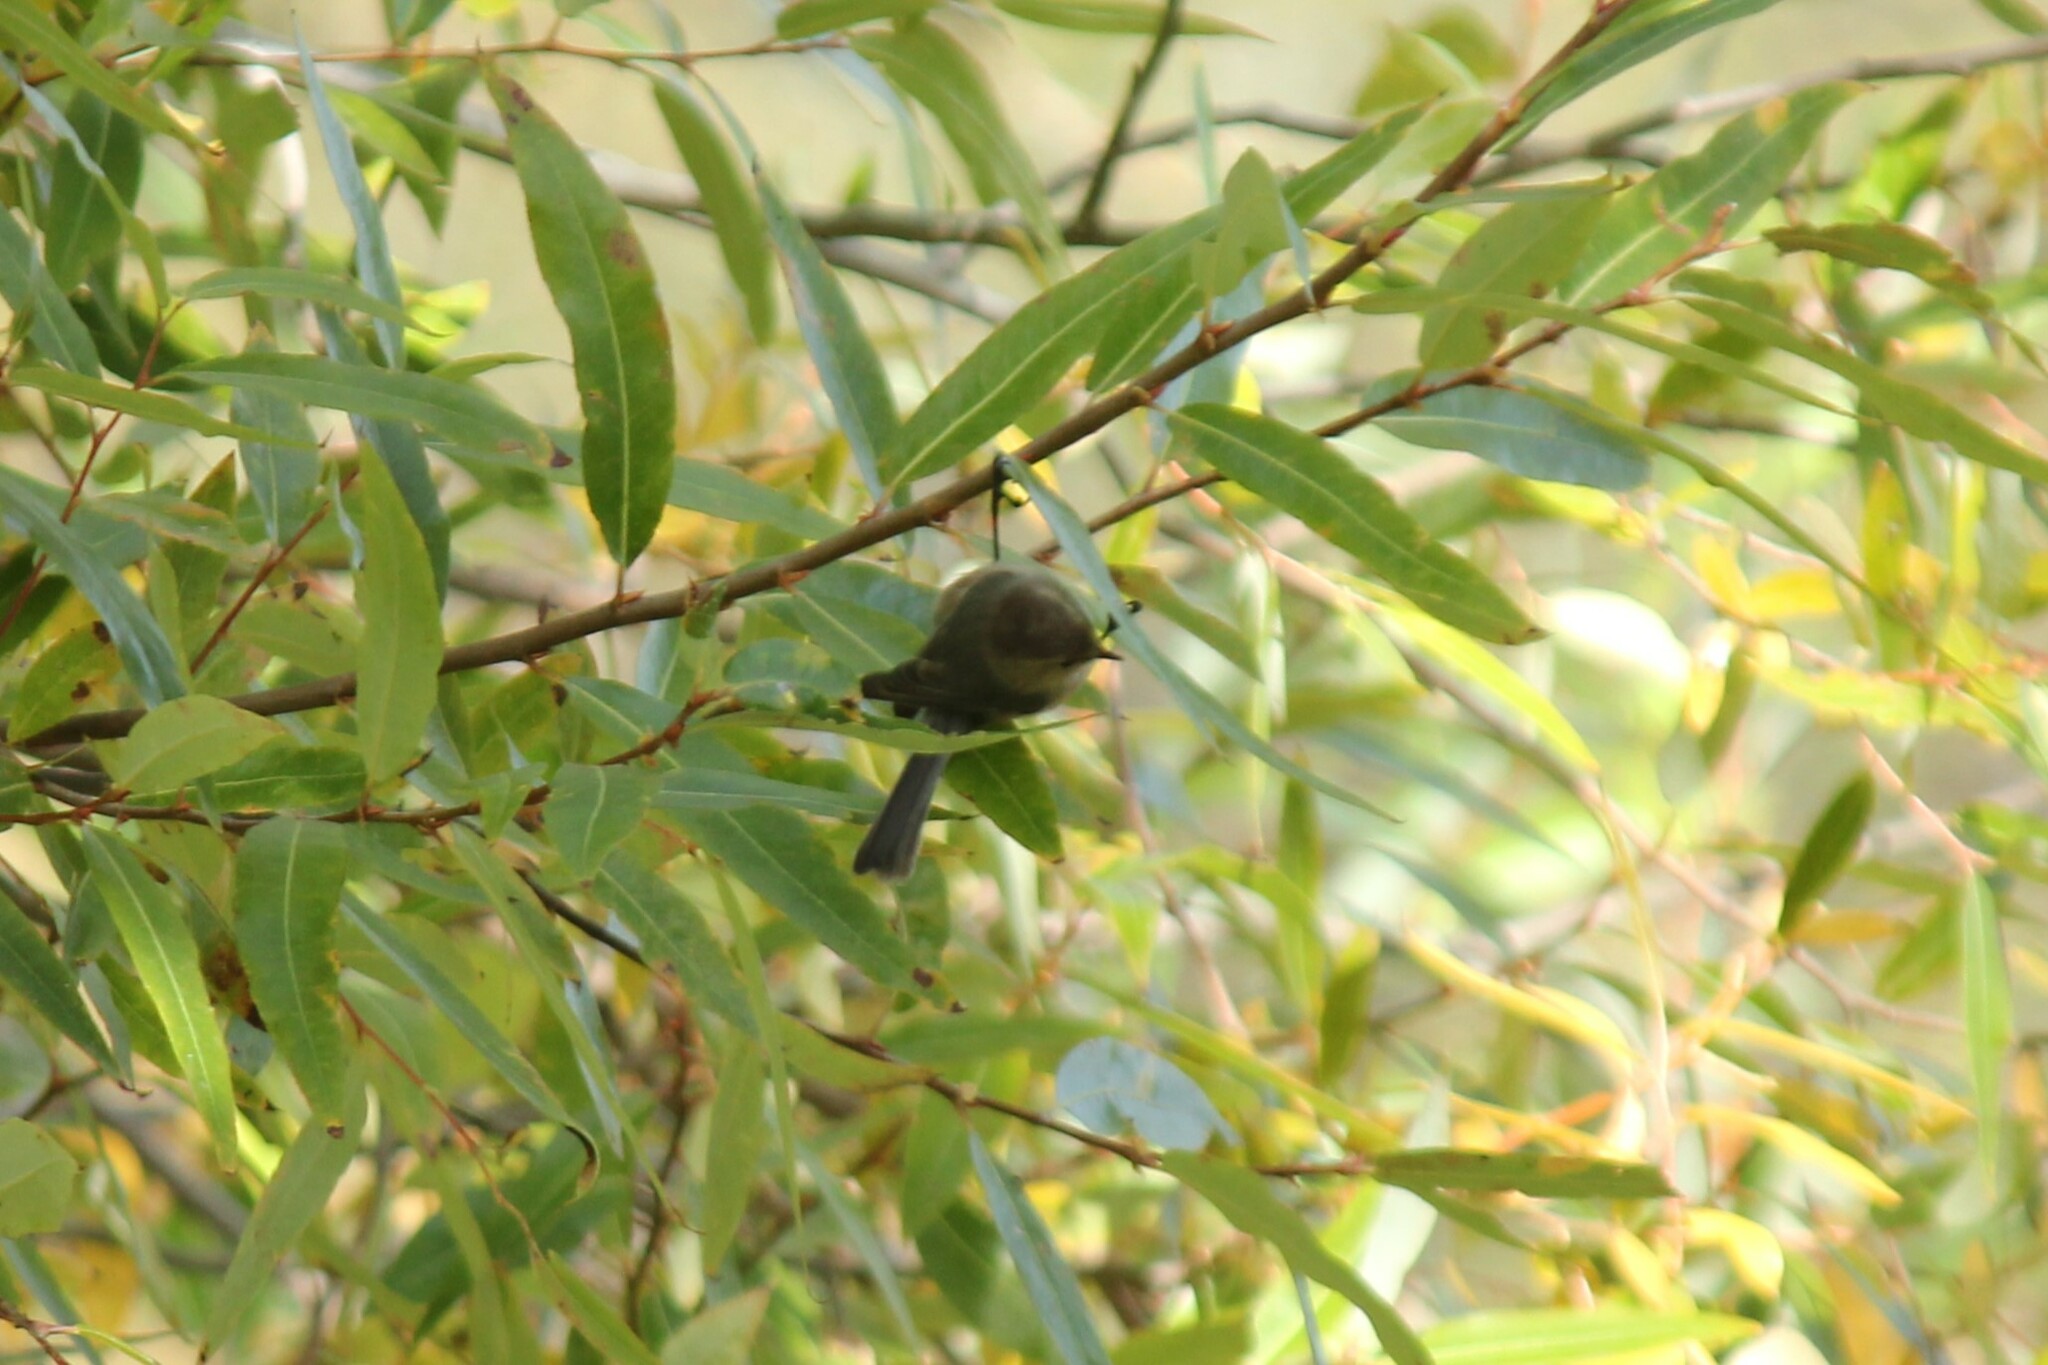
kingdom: Animalia
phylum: Chordata
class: Aves
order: Passeriformes
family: Aegithalidae
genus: Psaltriparus
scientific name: Psaltriparus minimus
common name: American bushtit
